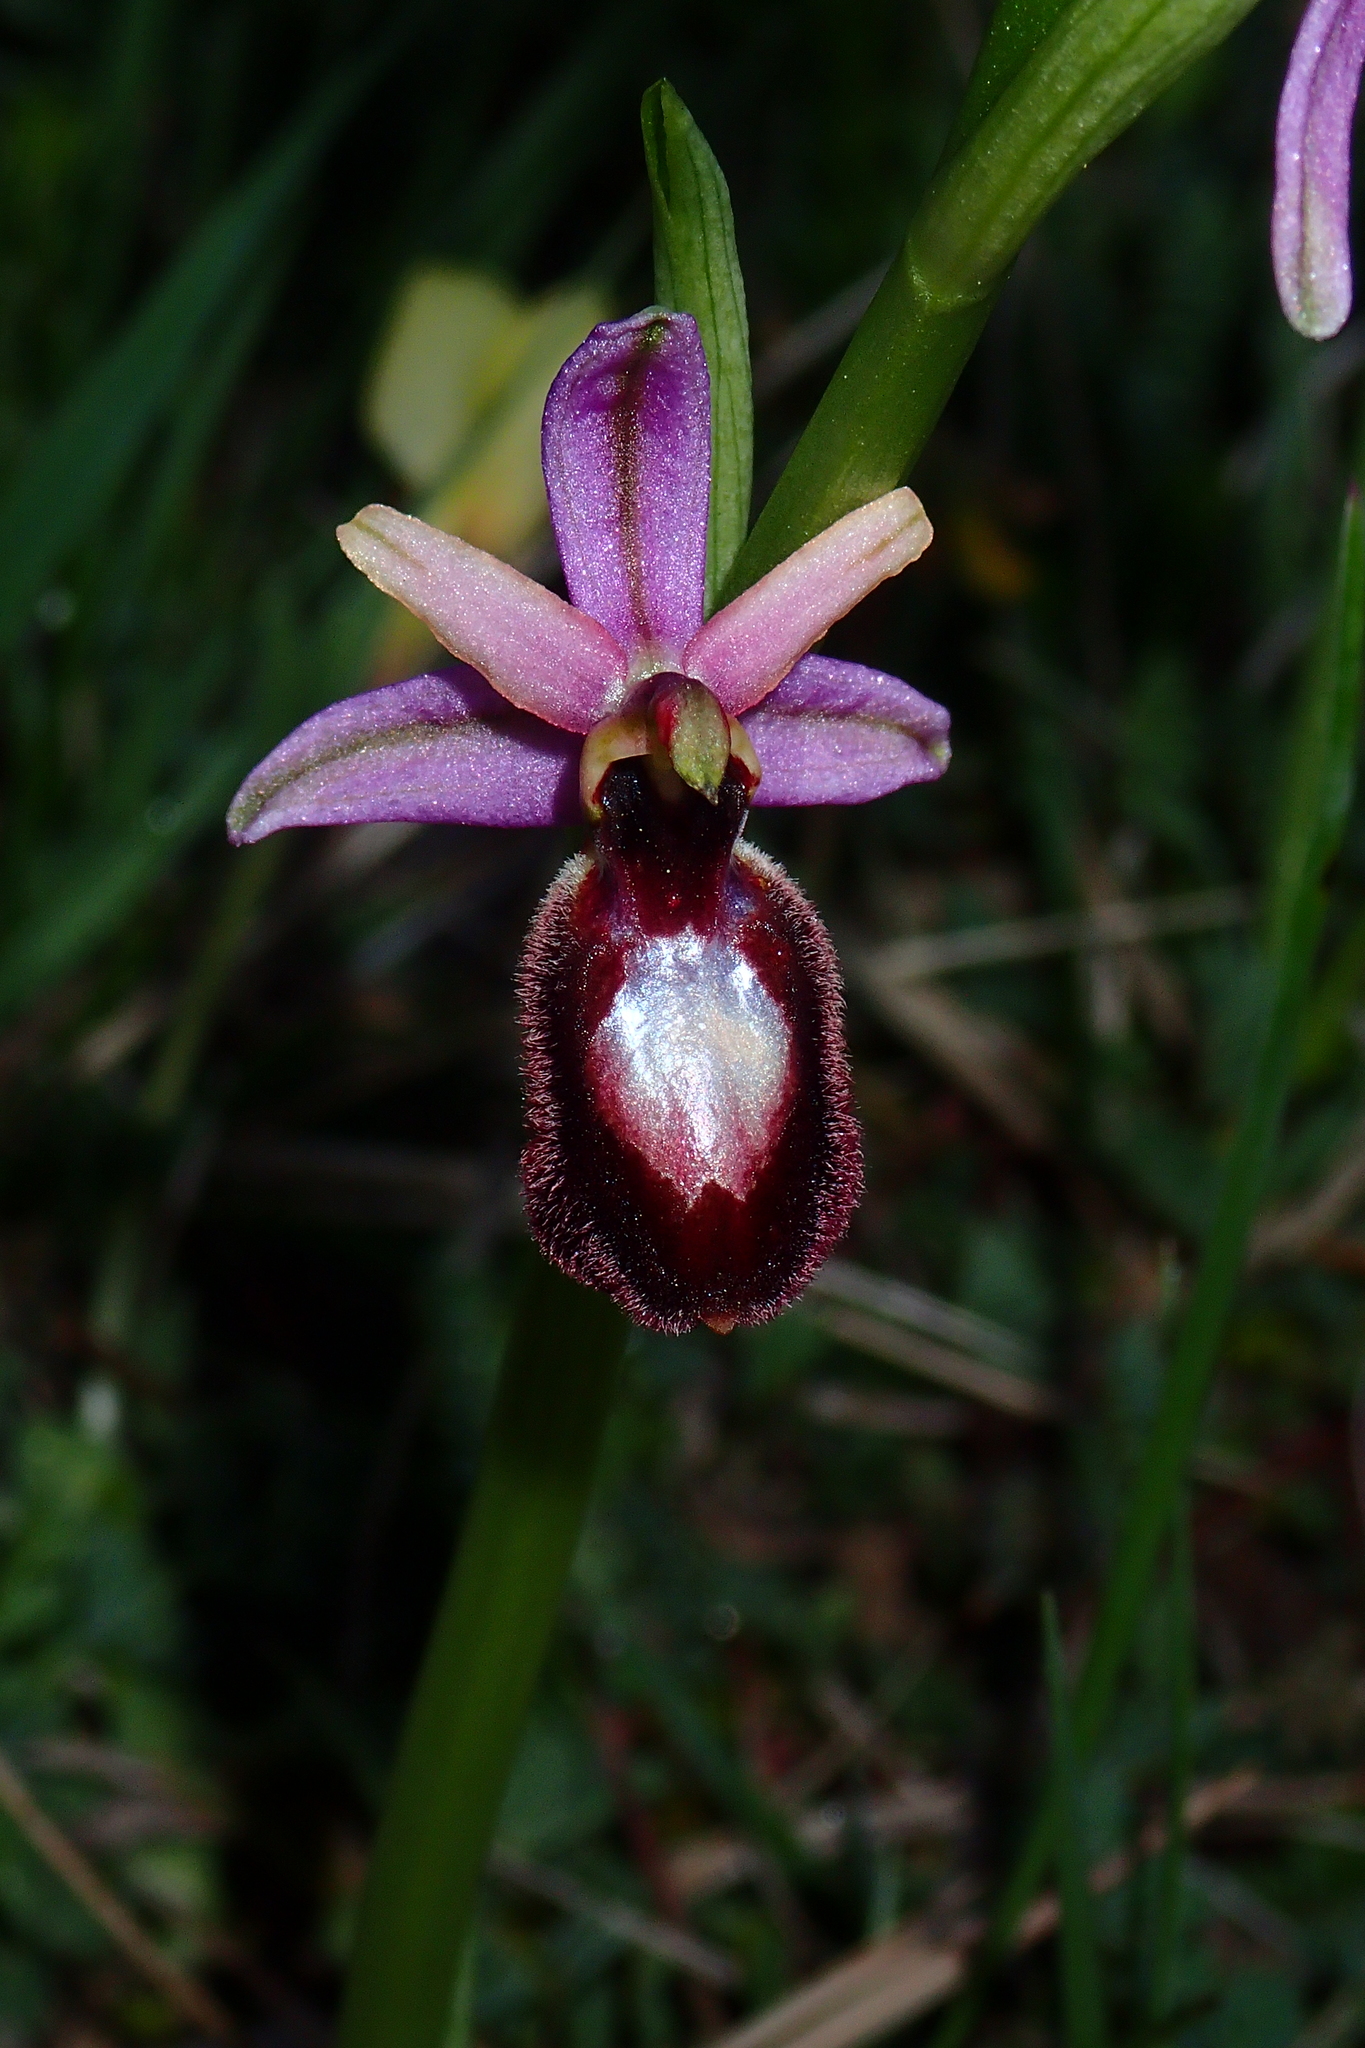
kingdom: Plantae
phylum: Tracheophyta
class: Liliopsida
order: Asparagales
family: Orchidaceae
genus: Ophrys
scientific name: Ophrys flavicans
